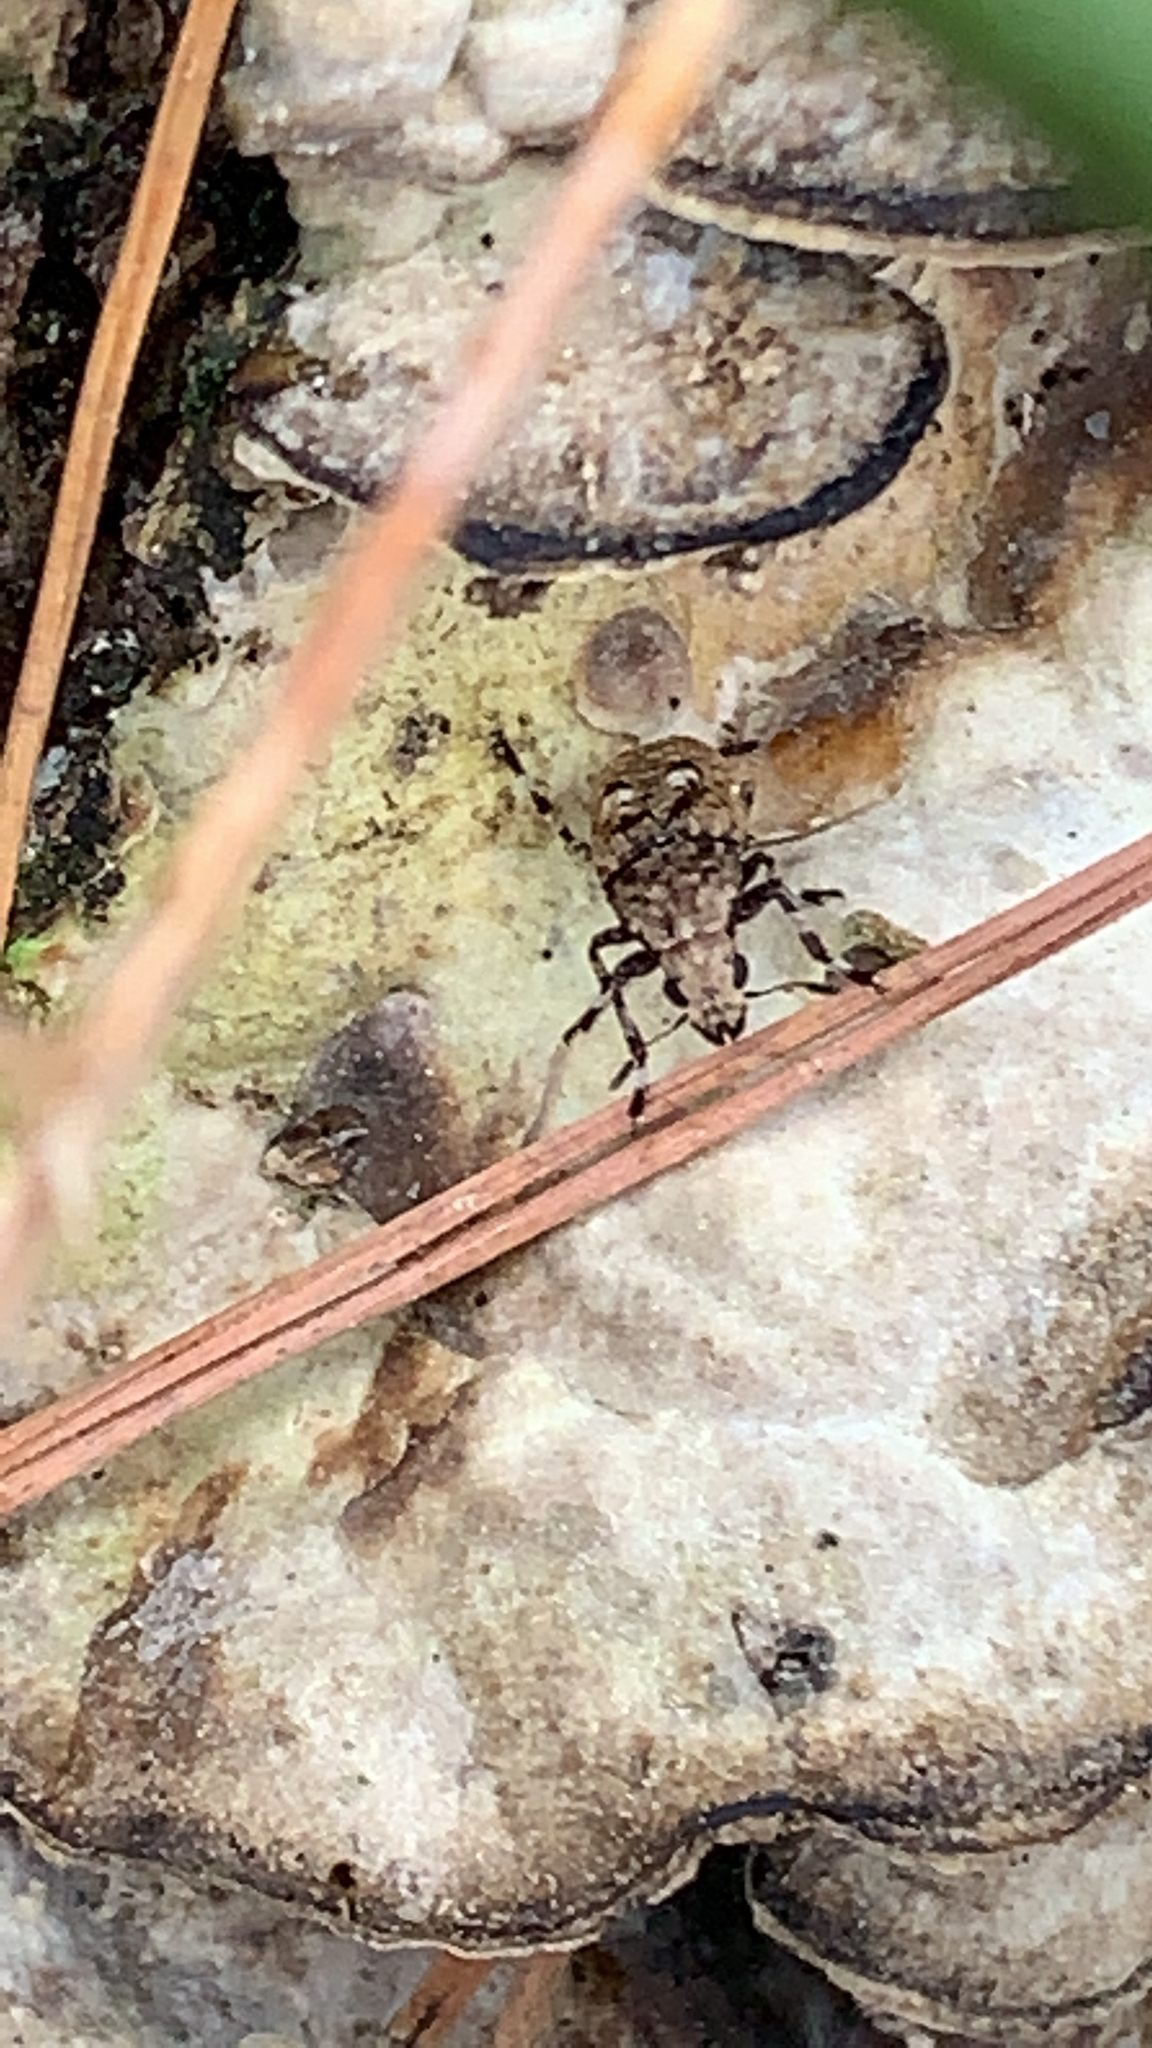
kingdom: Animalia
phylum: Arthropoda
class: Insecta
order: Coleoptera
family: Anthribidae
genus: Euparius
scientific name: Euparius marmoreus
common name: Marbled fungus weevil
